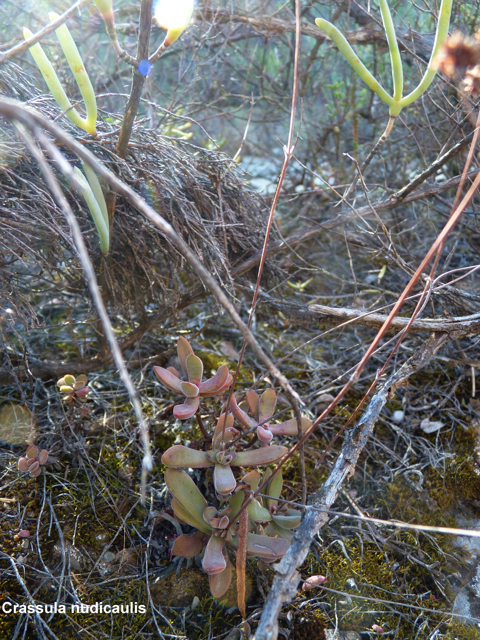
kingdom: Plantae
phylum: Tracheophyta
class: Magnoliopsida
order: Saxifragales
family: Crassulaceae
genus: Crassula
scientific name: Crassula pubescens
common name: Jersey pigmyweed
